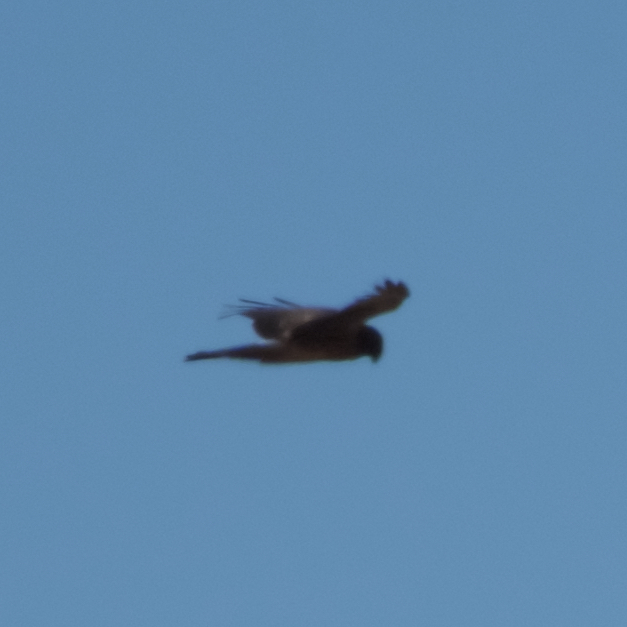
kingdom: Animalia
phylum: Chordata
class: Aves
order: Accipitriformes
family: Accipitridae
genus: Circus
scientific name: Circus cyaneus
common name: Hen harrier
